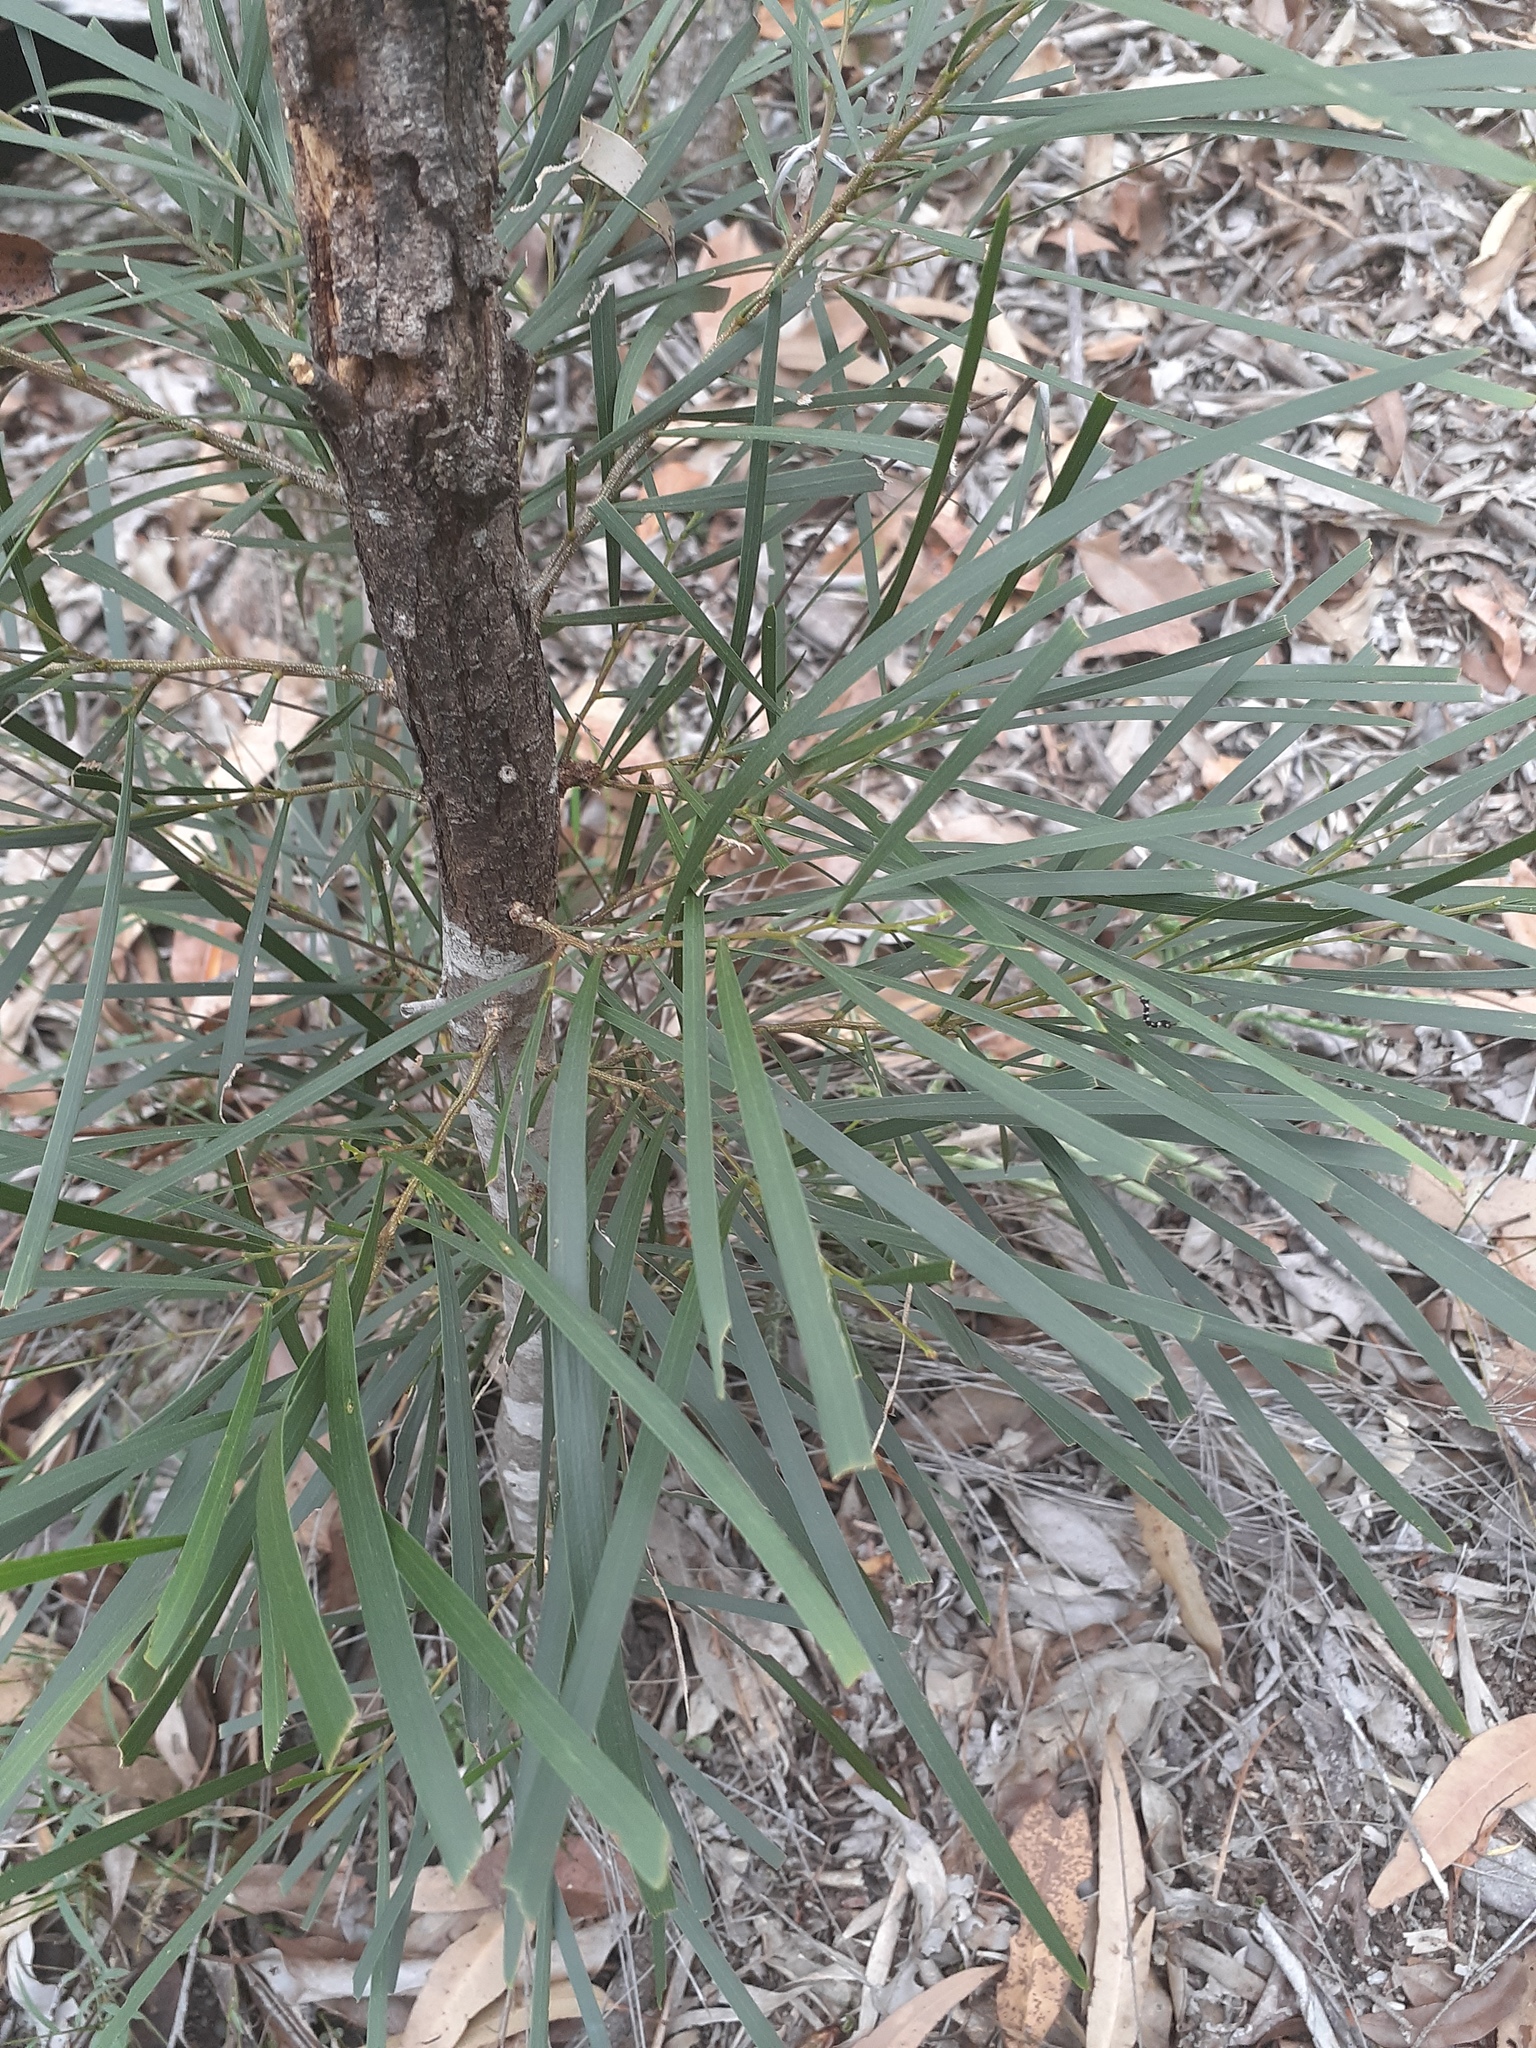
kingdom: Plantae
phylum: Tracheophyta
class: Magnoliopsida
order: Fabales
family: Fabaceae
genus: Acacia
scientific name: Acacia maidenii
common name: Maiden's wattle
